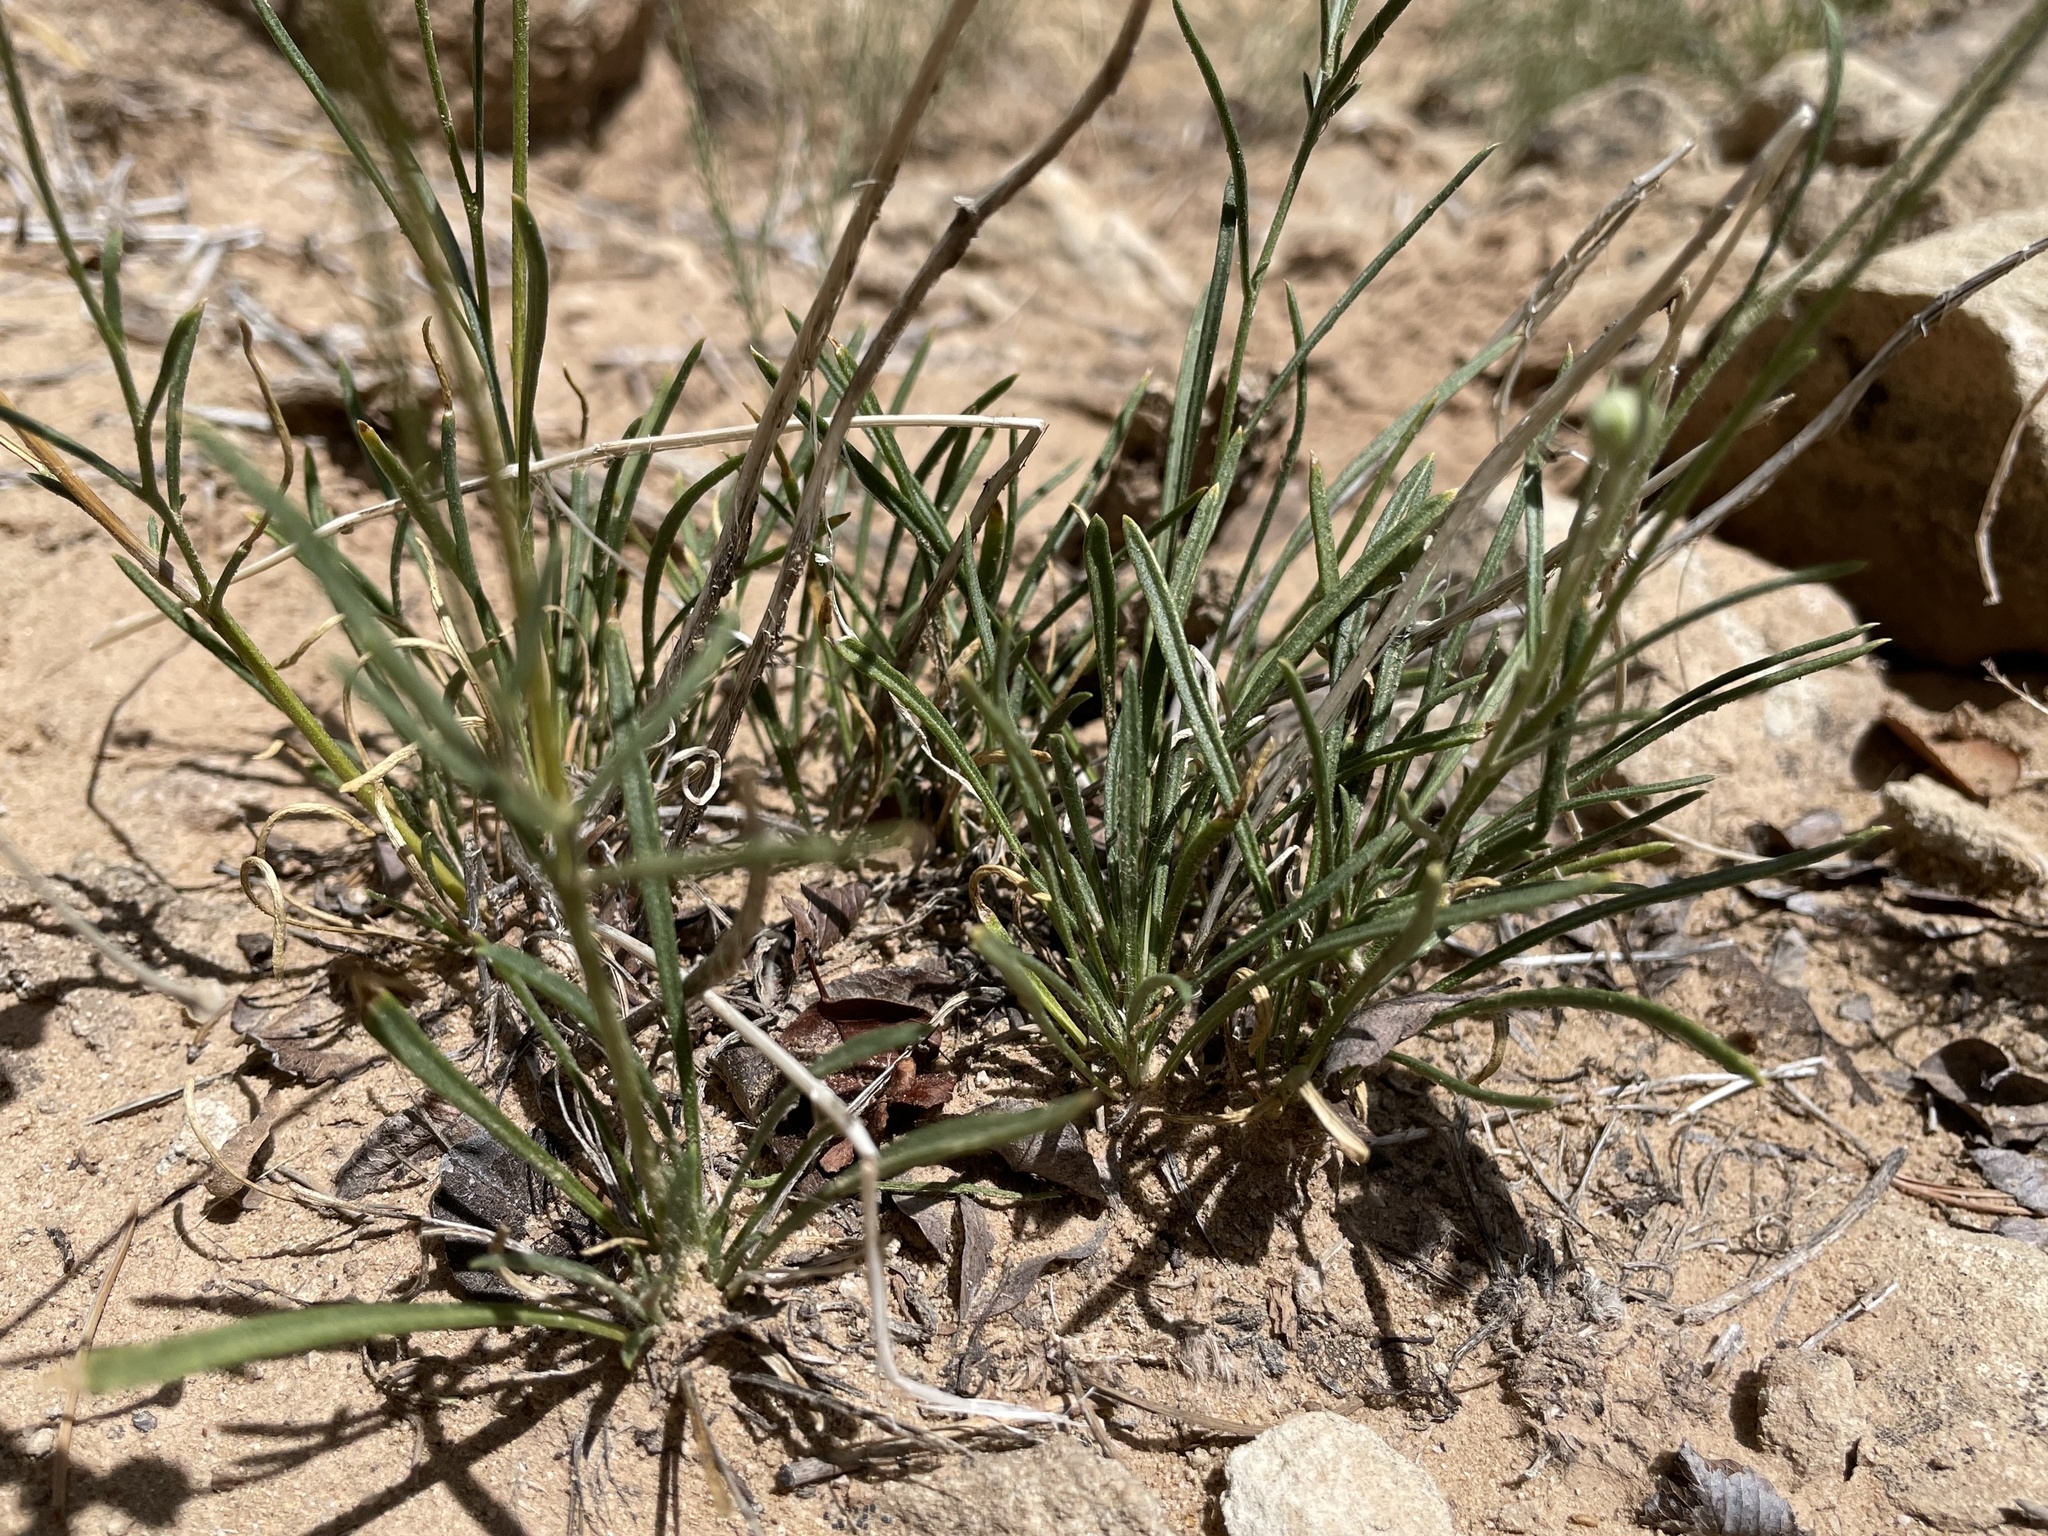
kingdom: Plantae
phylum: Tracheophyta
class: Magnoliopsida
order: Asterales
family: Asteraceae
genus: Tetraneuris
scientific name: Tetraneuris ivesiana
